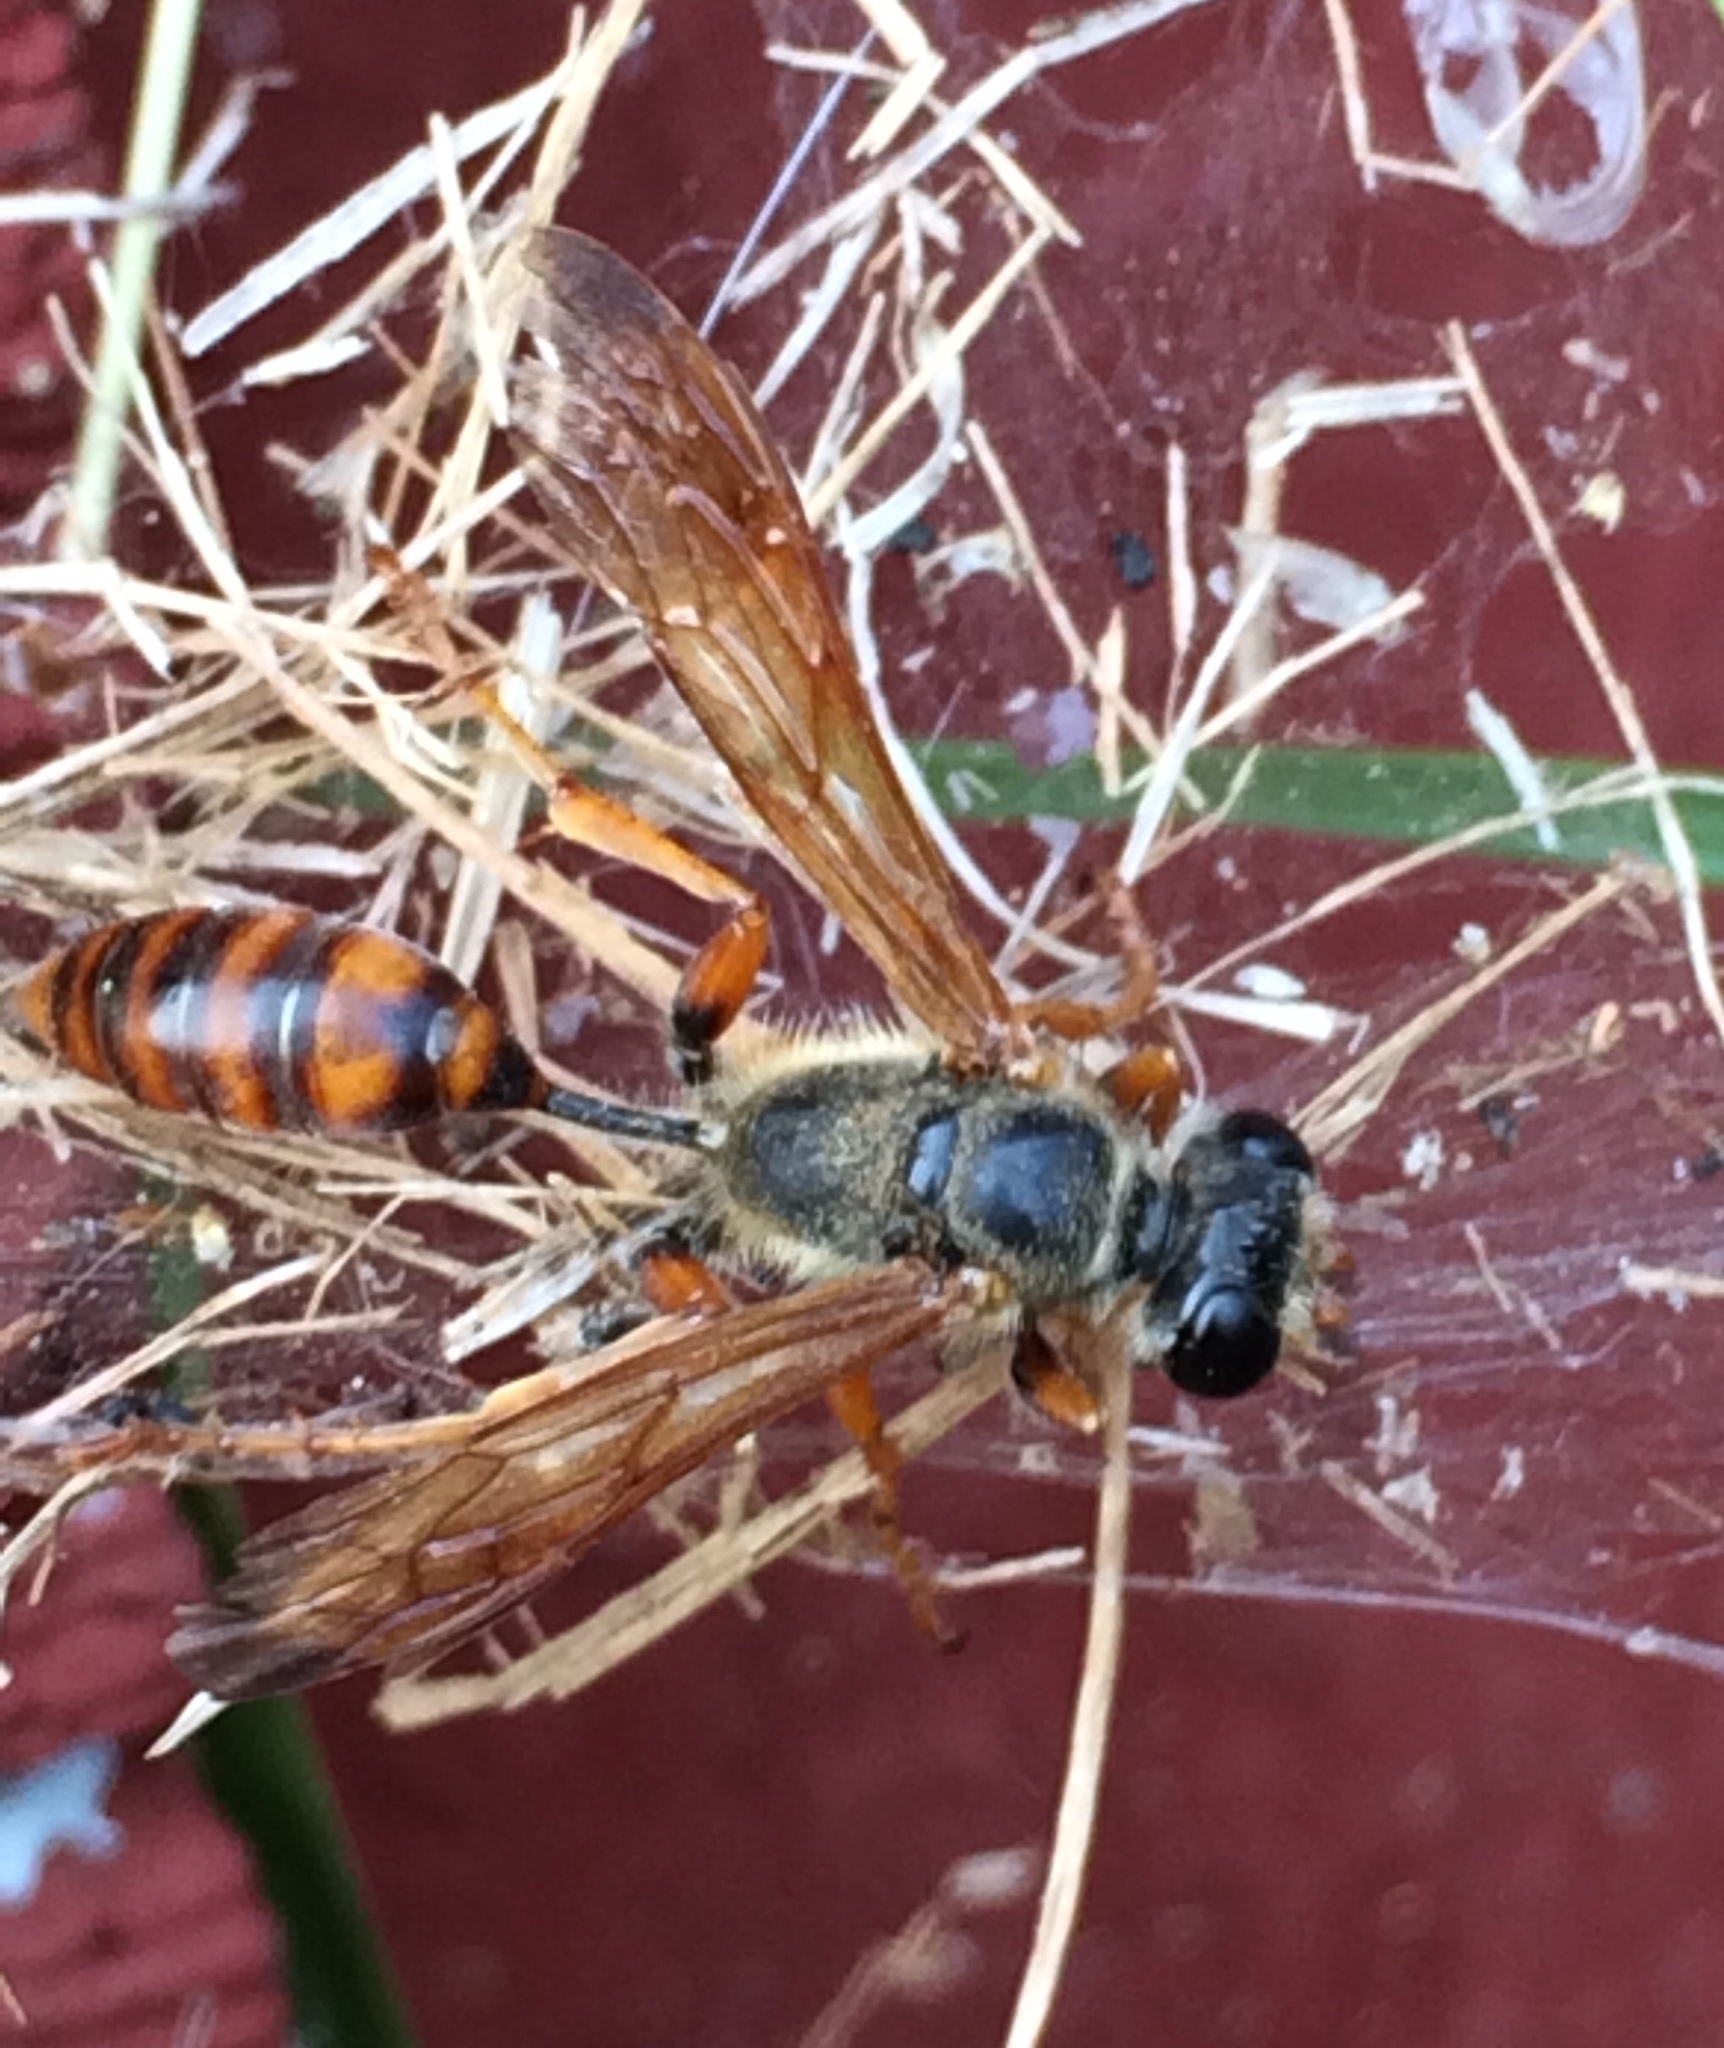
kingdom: Animalia
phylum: Arthropoda
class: Insecta
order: Hymenoptera
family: Sphecidae
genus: Isodontia
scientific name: Isodontia elegans
